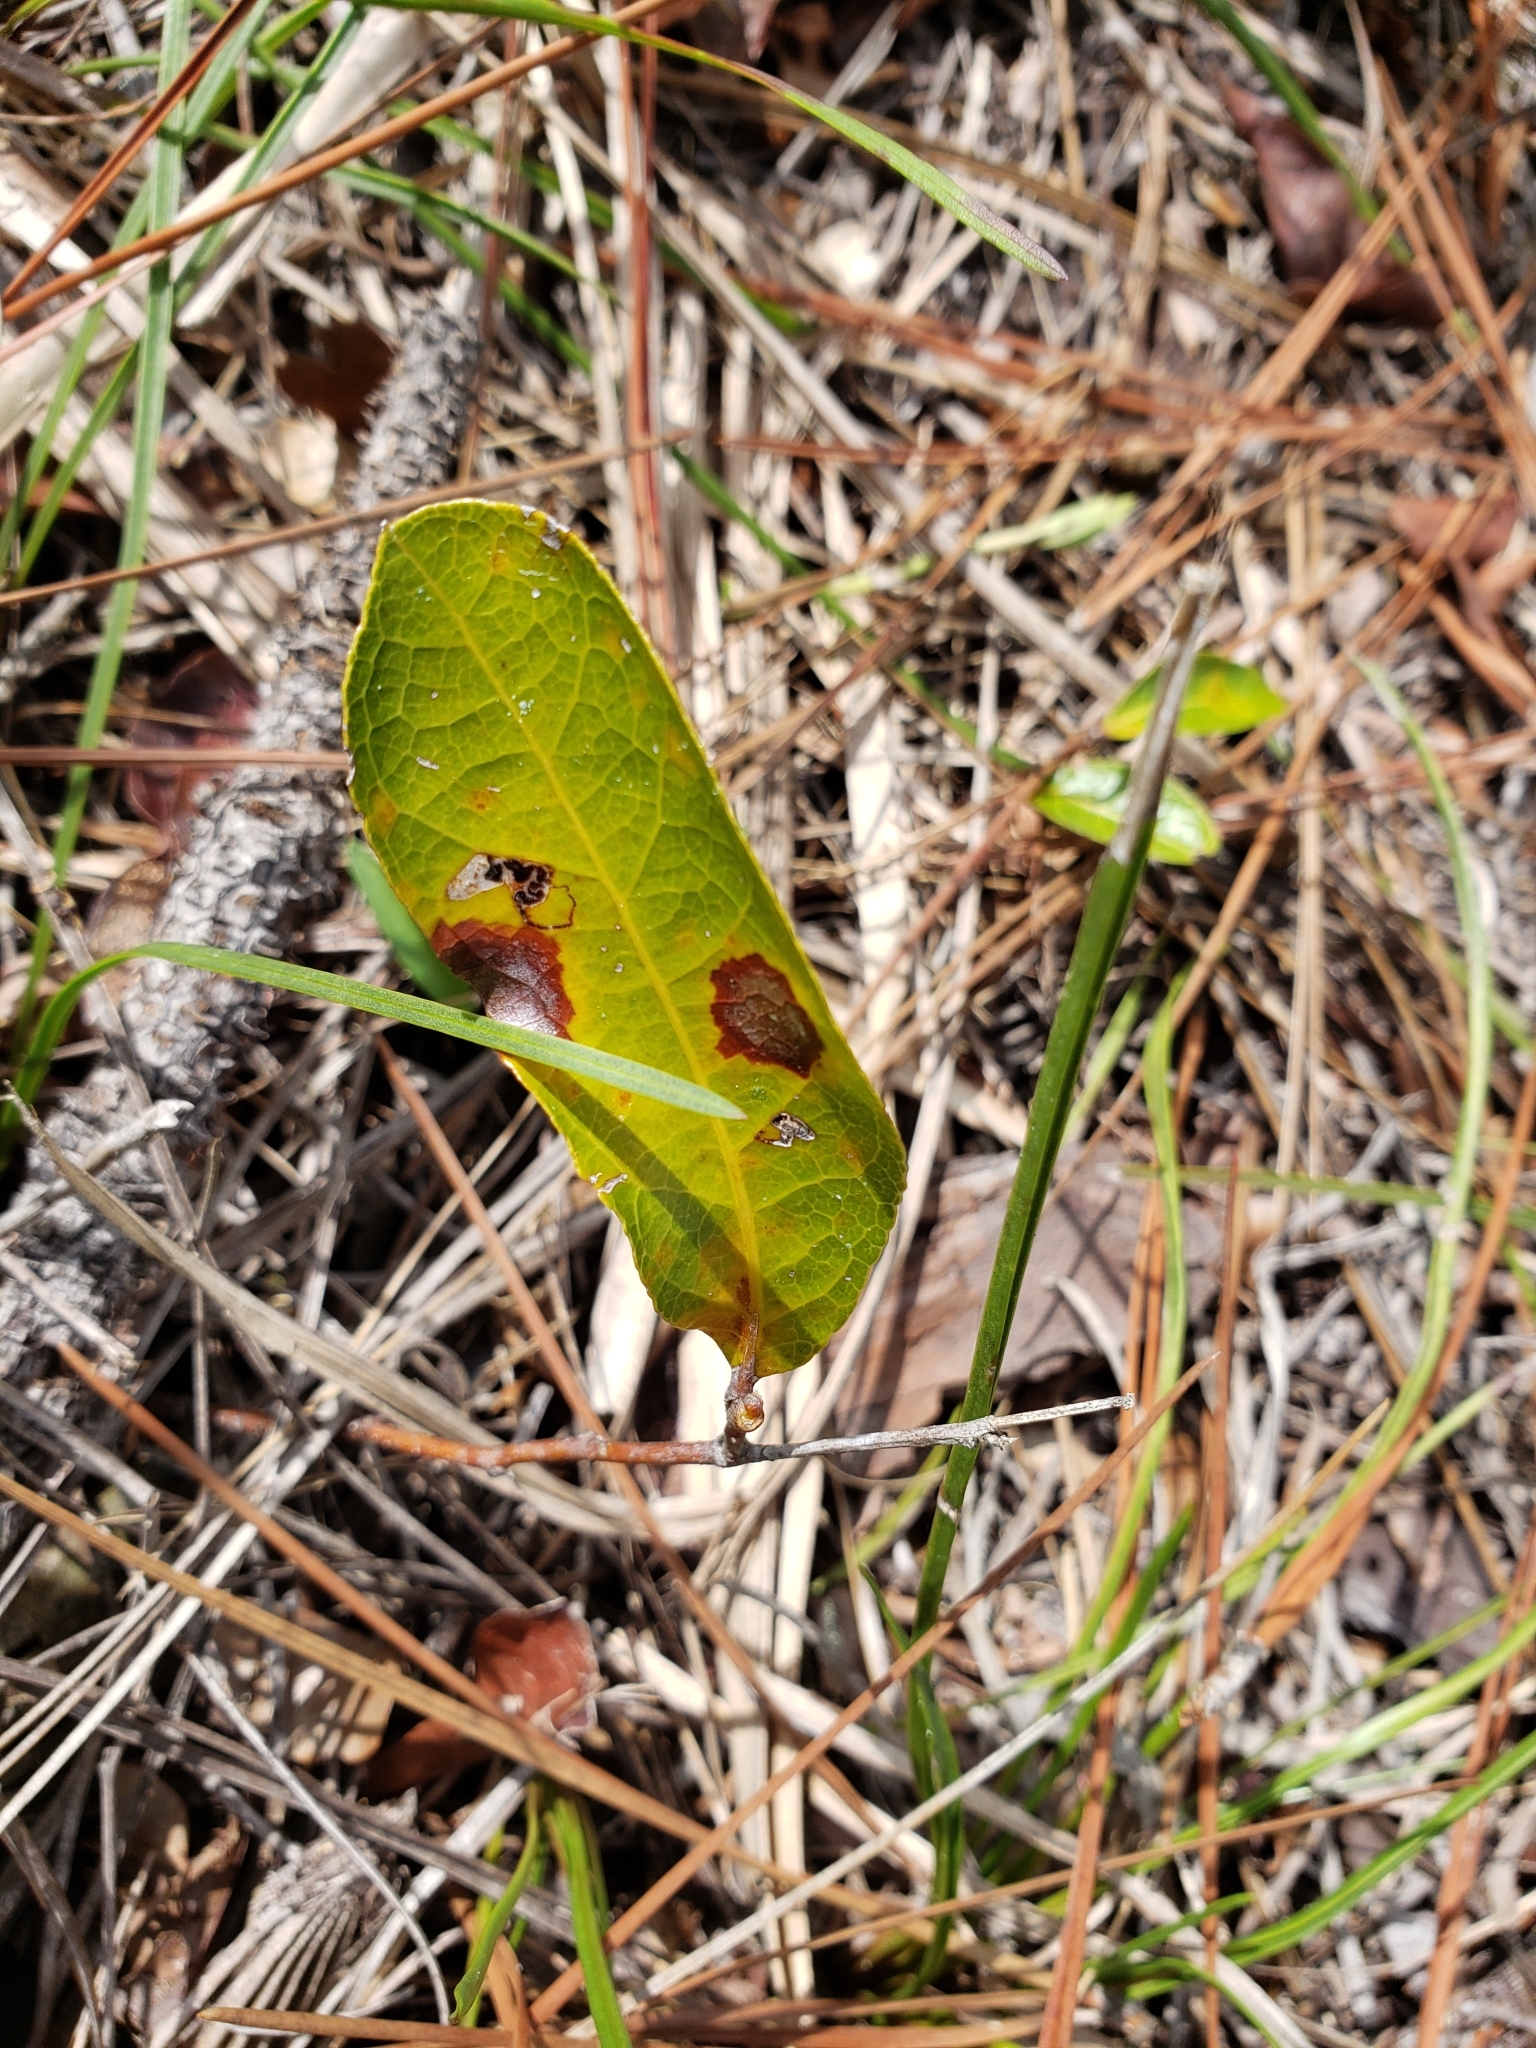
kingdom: Plantae
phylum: Tracheophyta
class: Magnoliopsida
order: Malpighiales
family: Chrysobalanaceae
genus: Geobalanus
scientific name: Geobalanus oblongifolius
